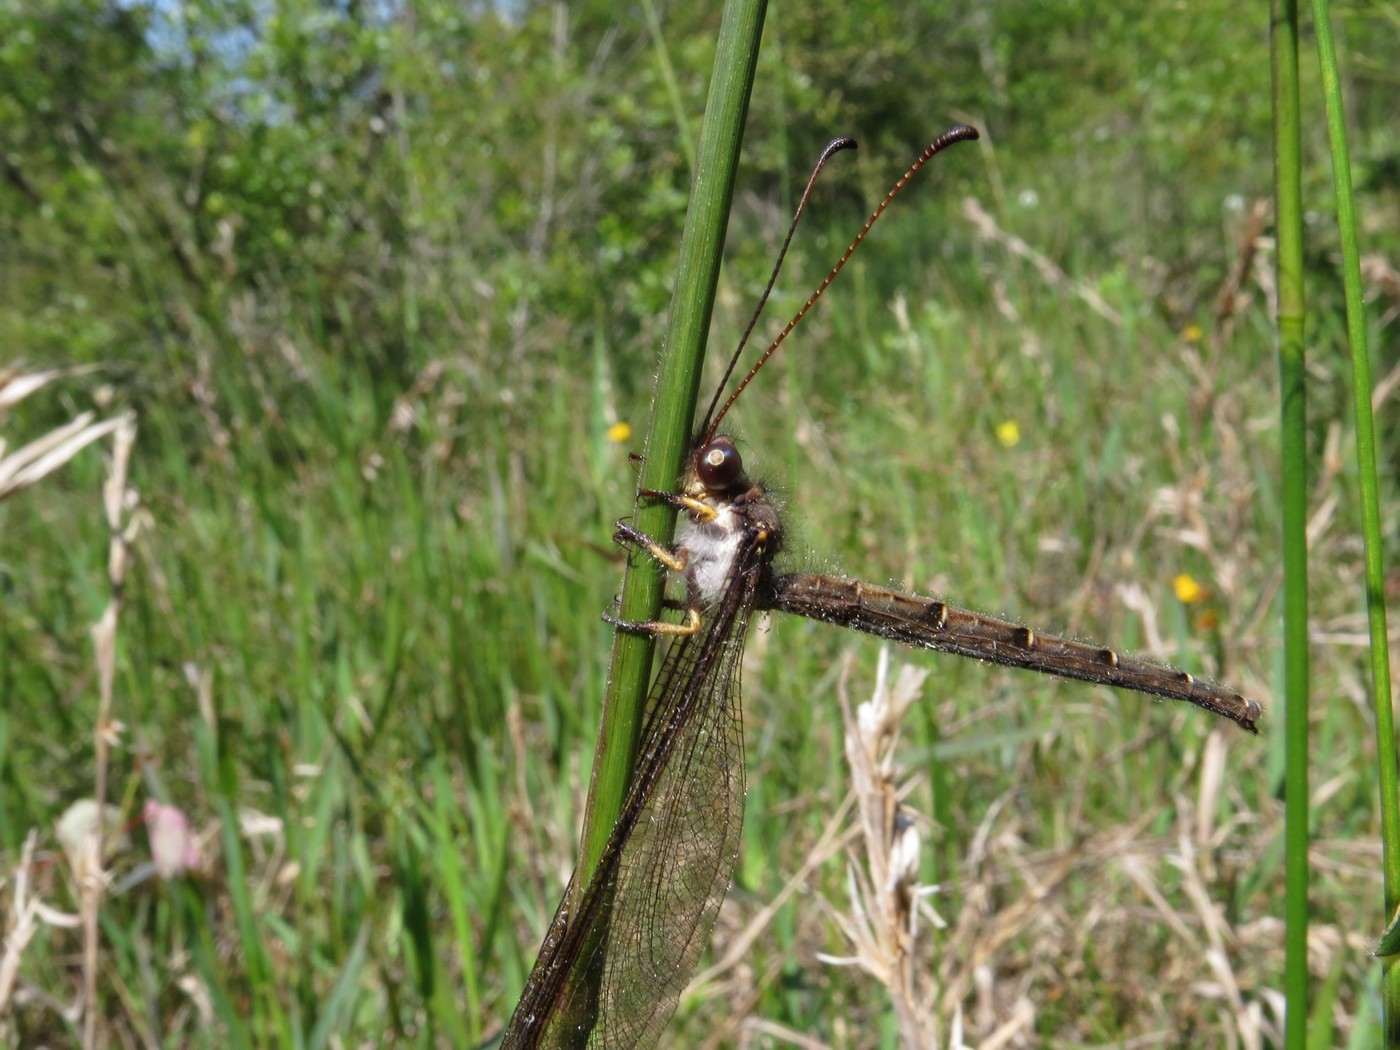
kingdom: Animalia
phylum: Arthropoda
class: Insecta
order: Neuroptera
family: Ascalaphidae
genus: Ascaloptynx
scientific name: Ascaloptynx appendiculata
